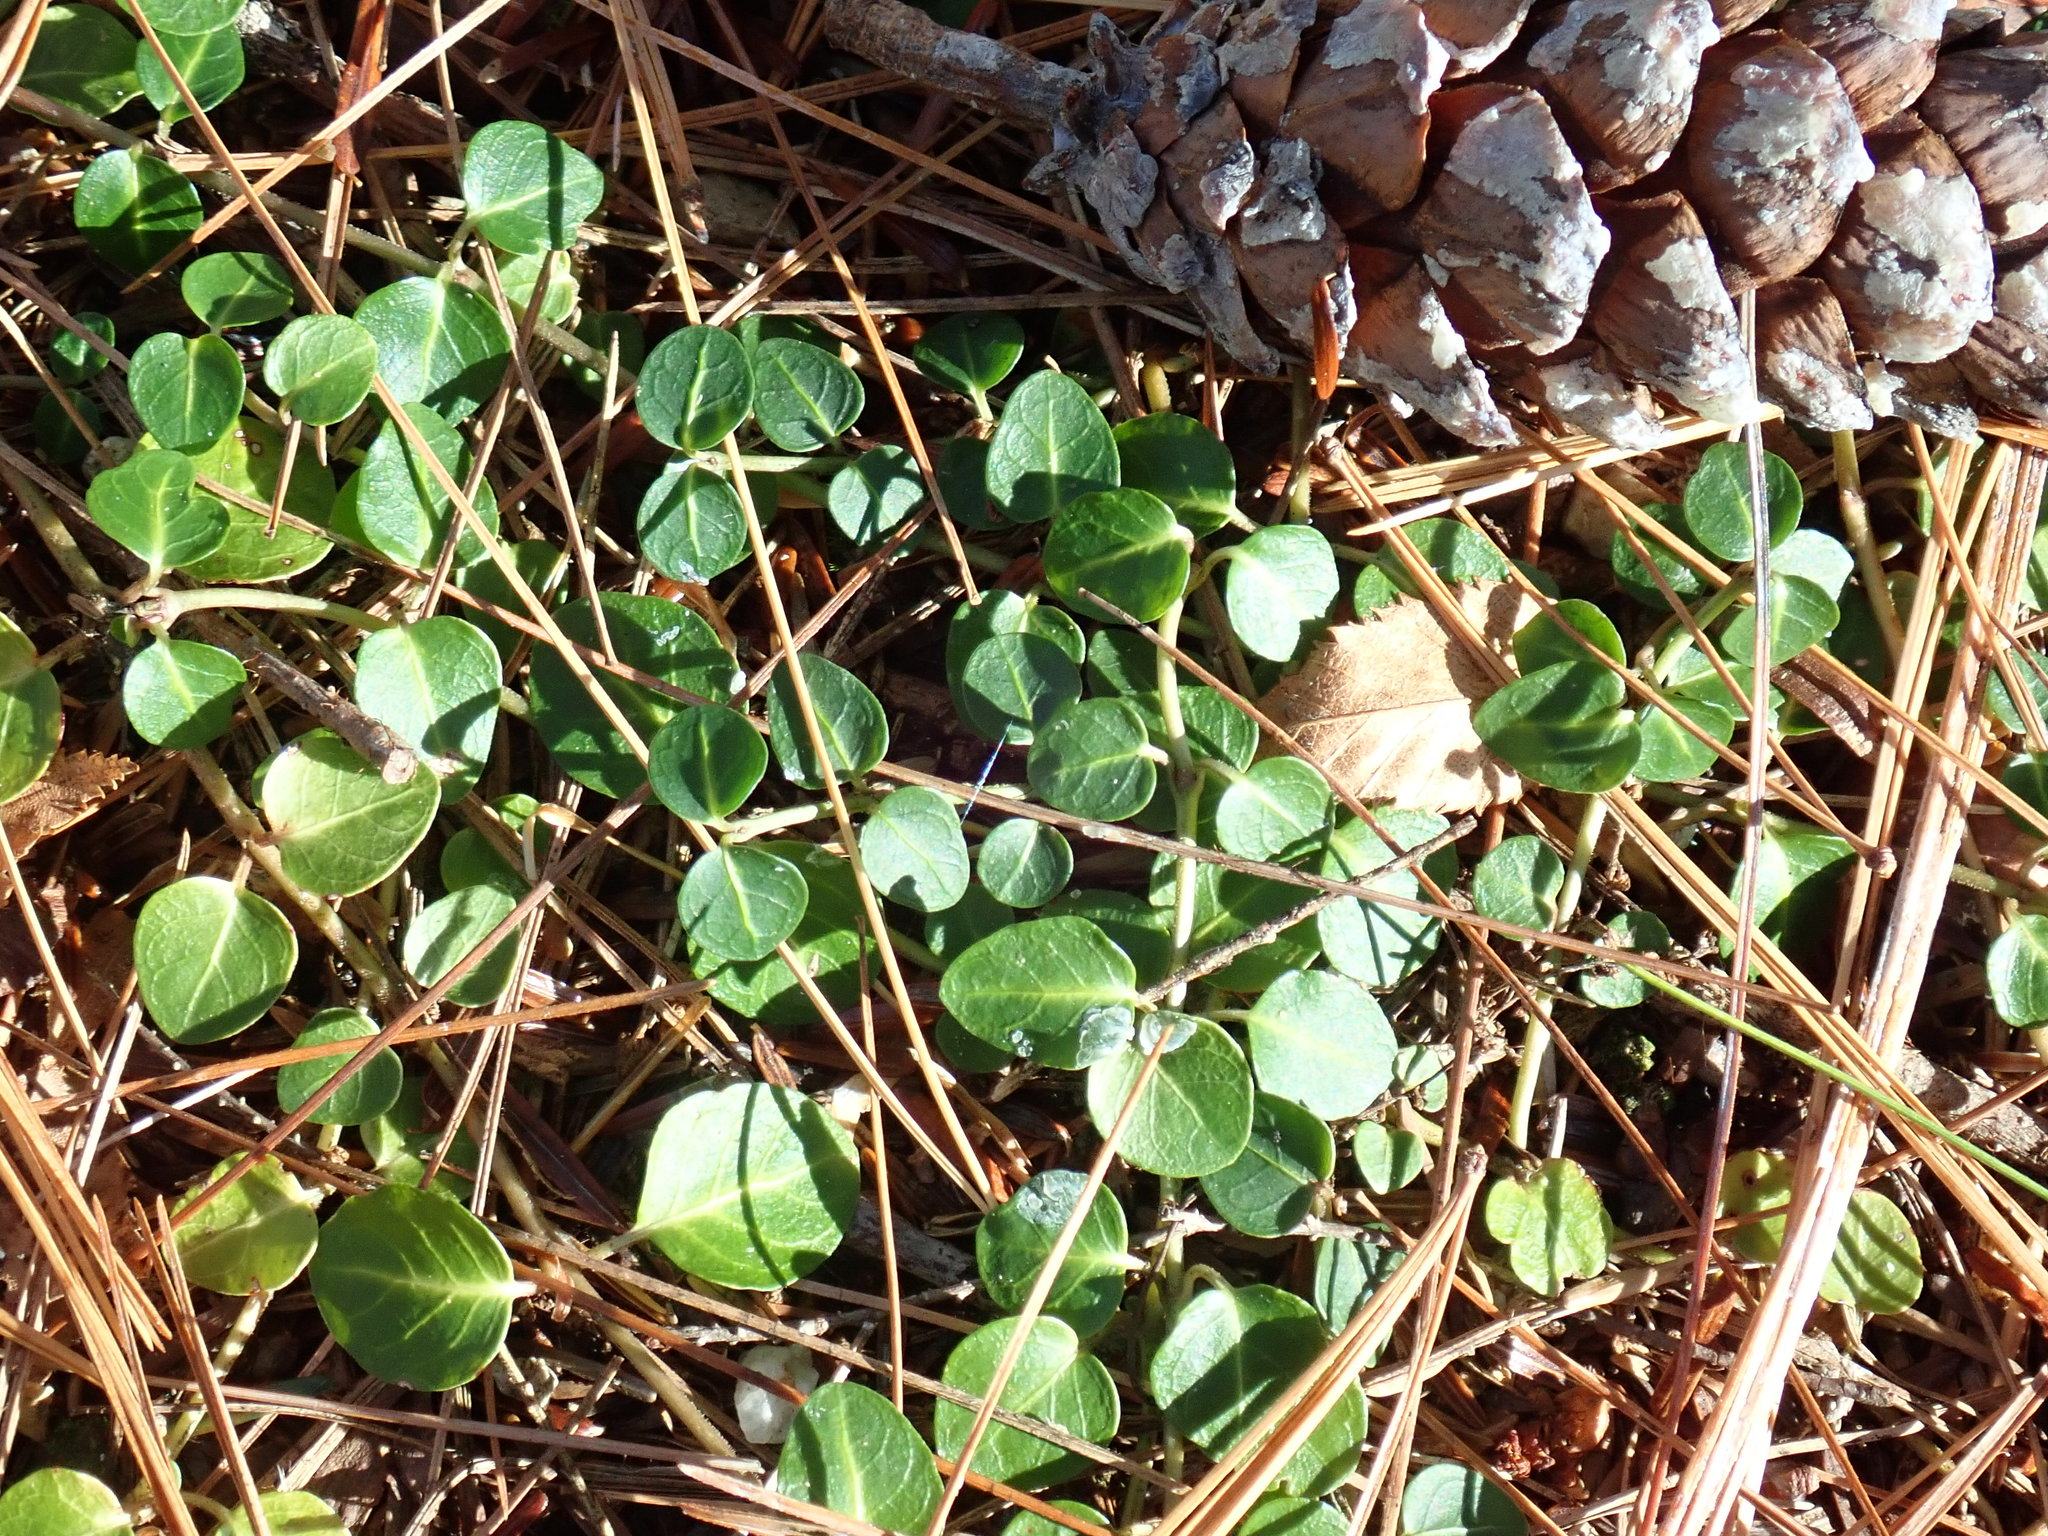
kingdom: Plantae
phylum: Tracheophyta
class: Magnoliopsida
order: Gentianales
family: Rubiaceae
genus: Mitchella
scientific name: Mitchella repens
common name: Partridge-berry
